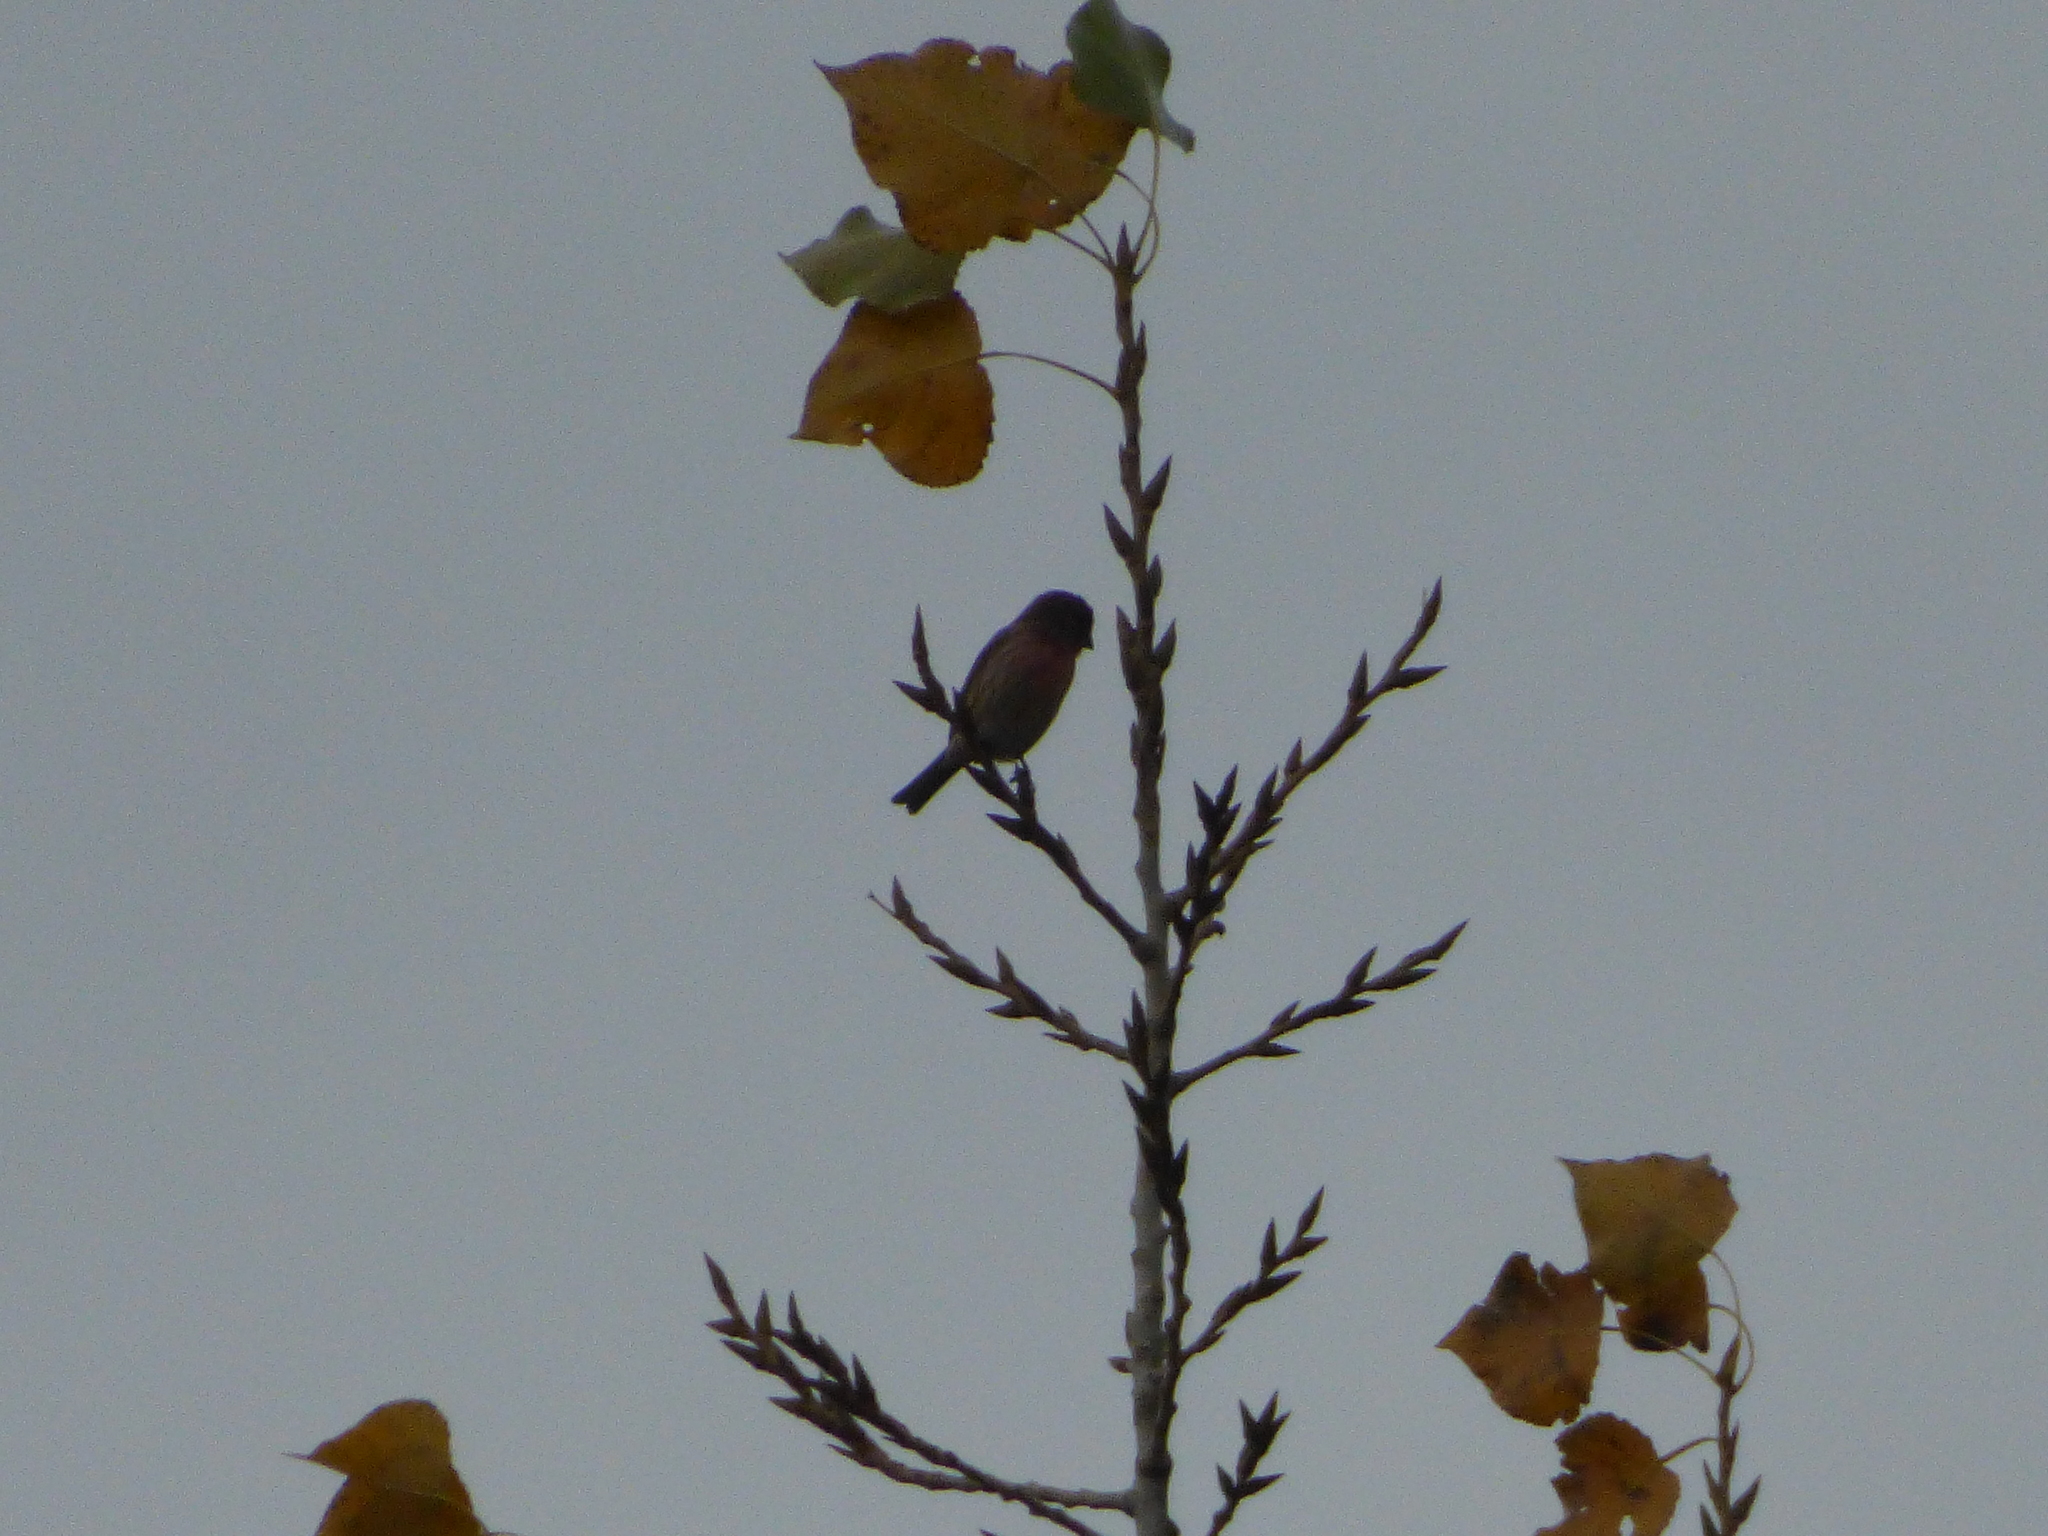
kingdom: Animalia
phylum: Chordata
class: Aves
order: Passeriformes
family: Fringillidae
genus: Haemorhous
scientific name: Haemorhous mexicanus
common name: House finch
